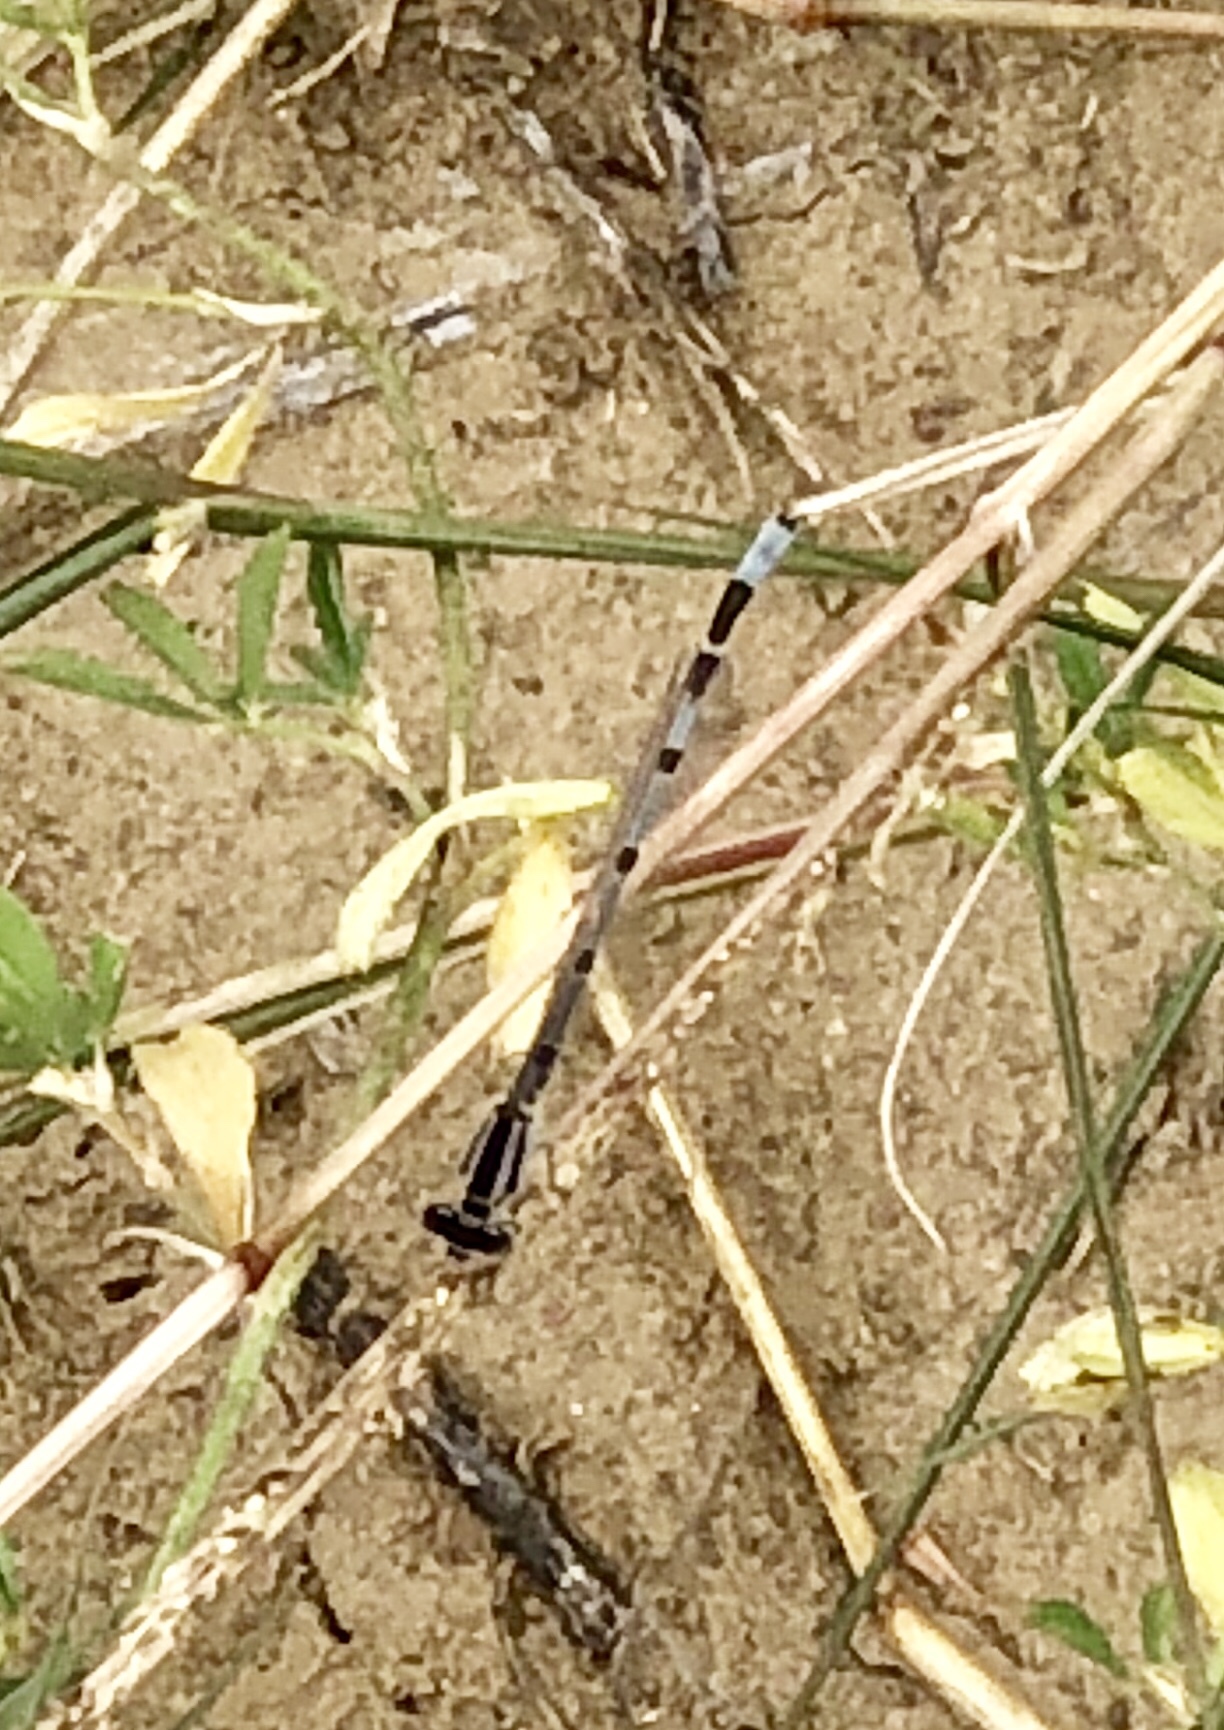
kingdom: Animalia
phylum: Arthropoda
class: Insecta
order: Odonata
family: Coenagrionidae
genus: Enallagma
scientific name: Enallagma praevarum
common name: Arroyo bluet
